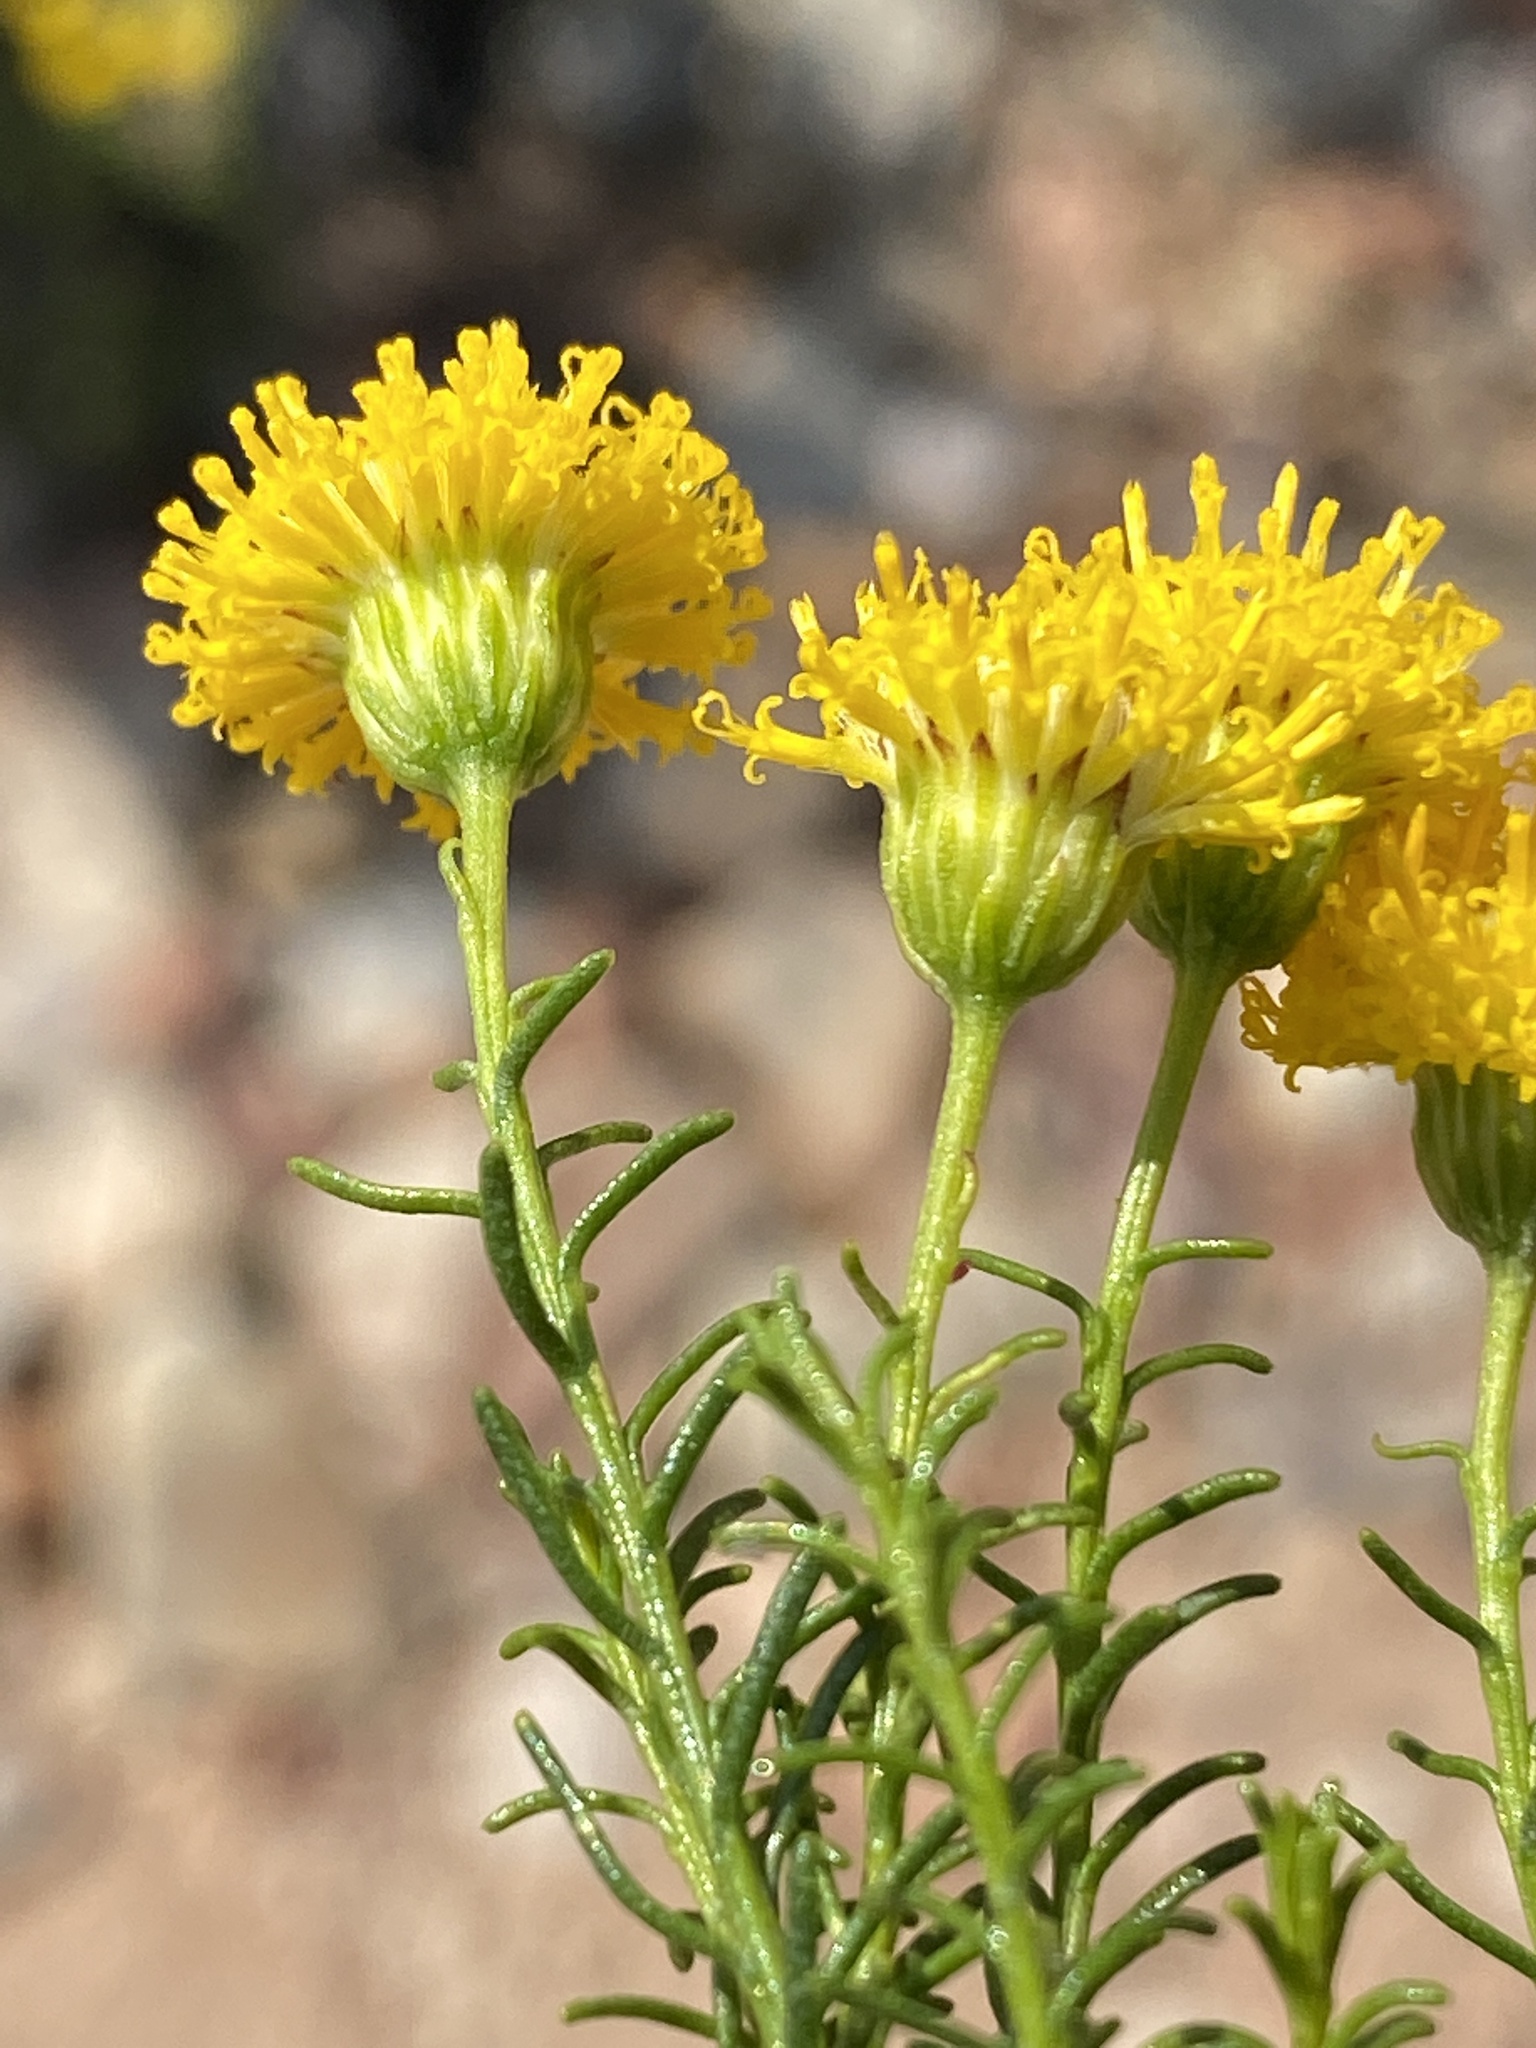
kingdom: Plantae
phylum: Tracheophyta
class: Magnoliopsida
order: Asterales
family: Asteraceae
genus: Chrysocoma
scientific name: Chrysocoma ciliata
